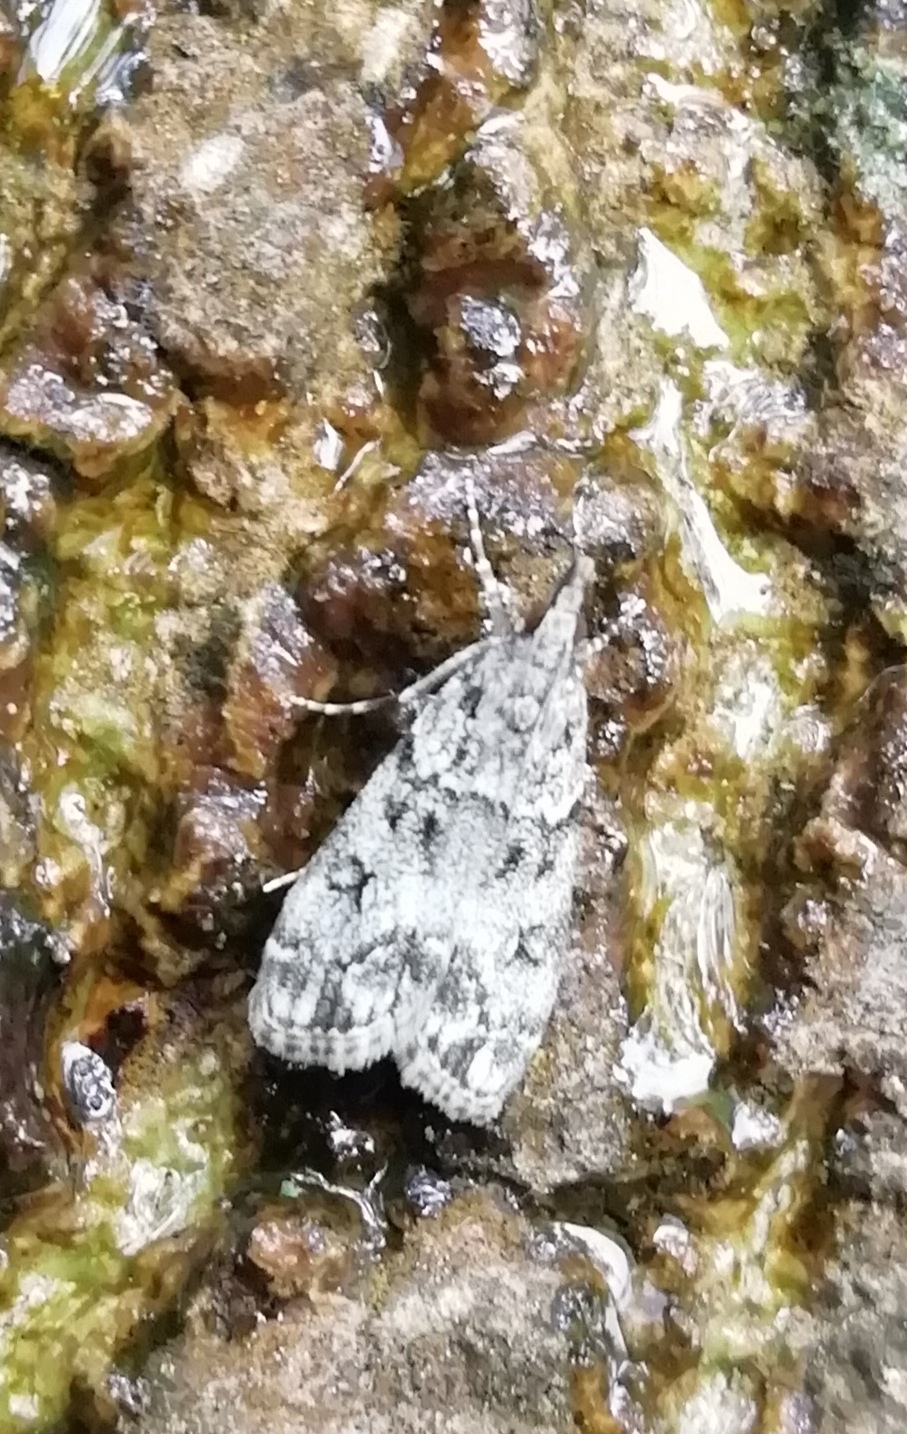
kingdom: Animalia
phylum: Arthropoda
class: Insecta
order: Lepidoptera
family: Crambidae
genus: Eudonia
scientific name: Eudonia lacustrata
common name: Little grey
